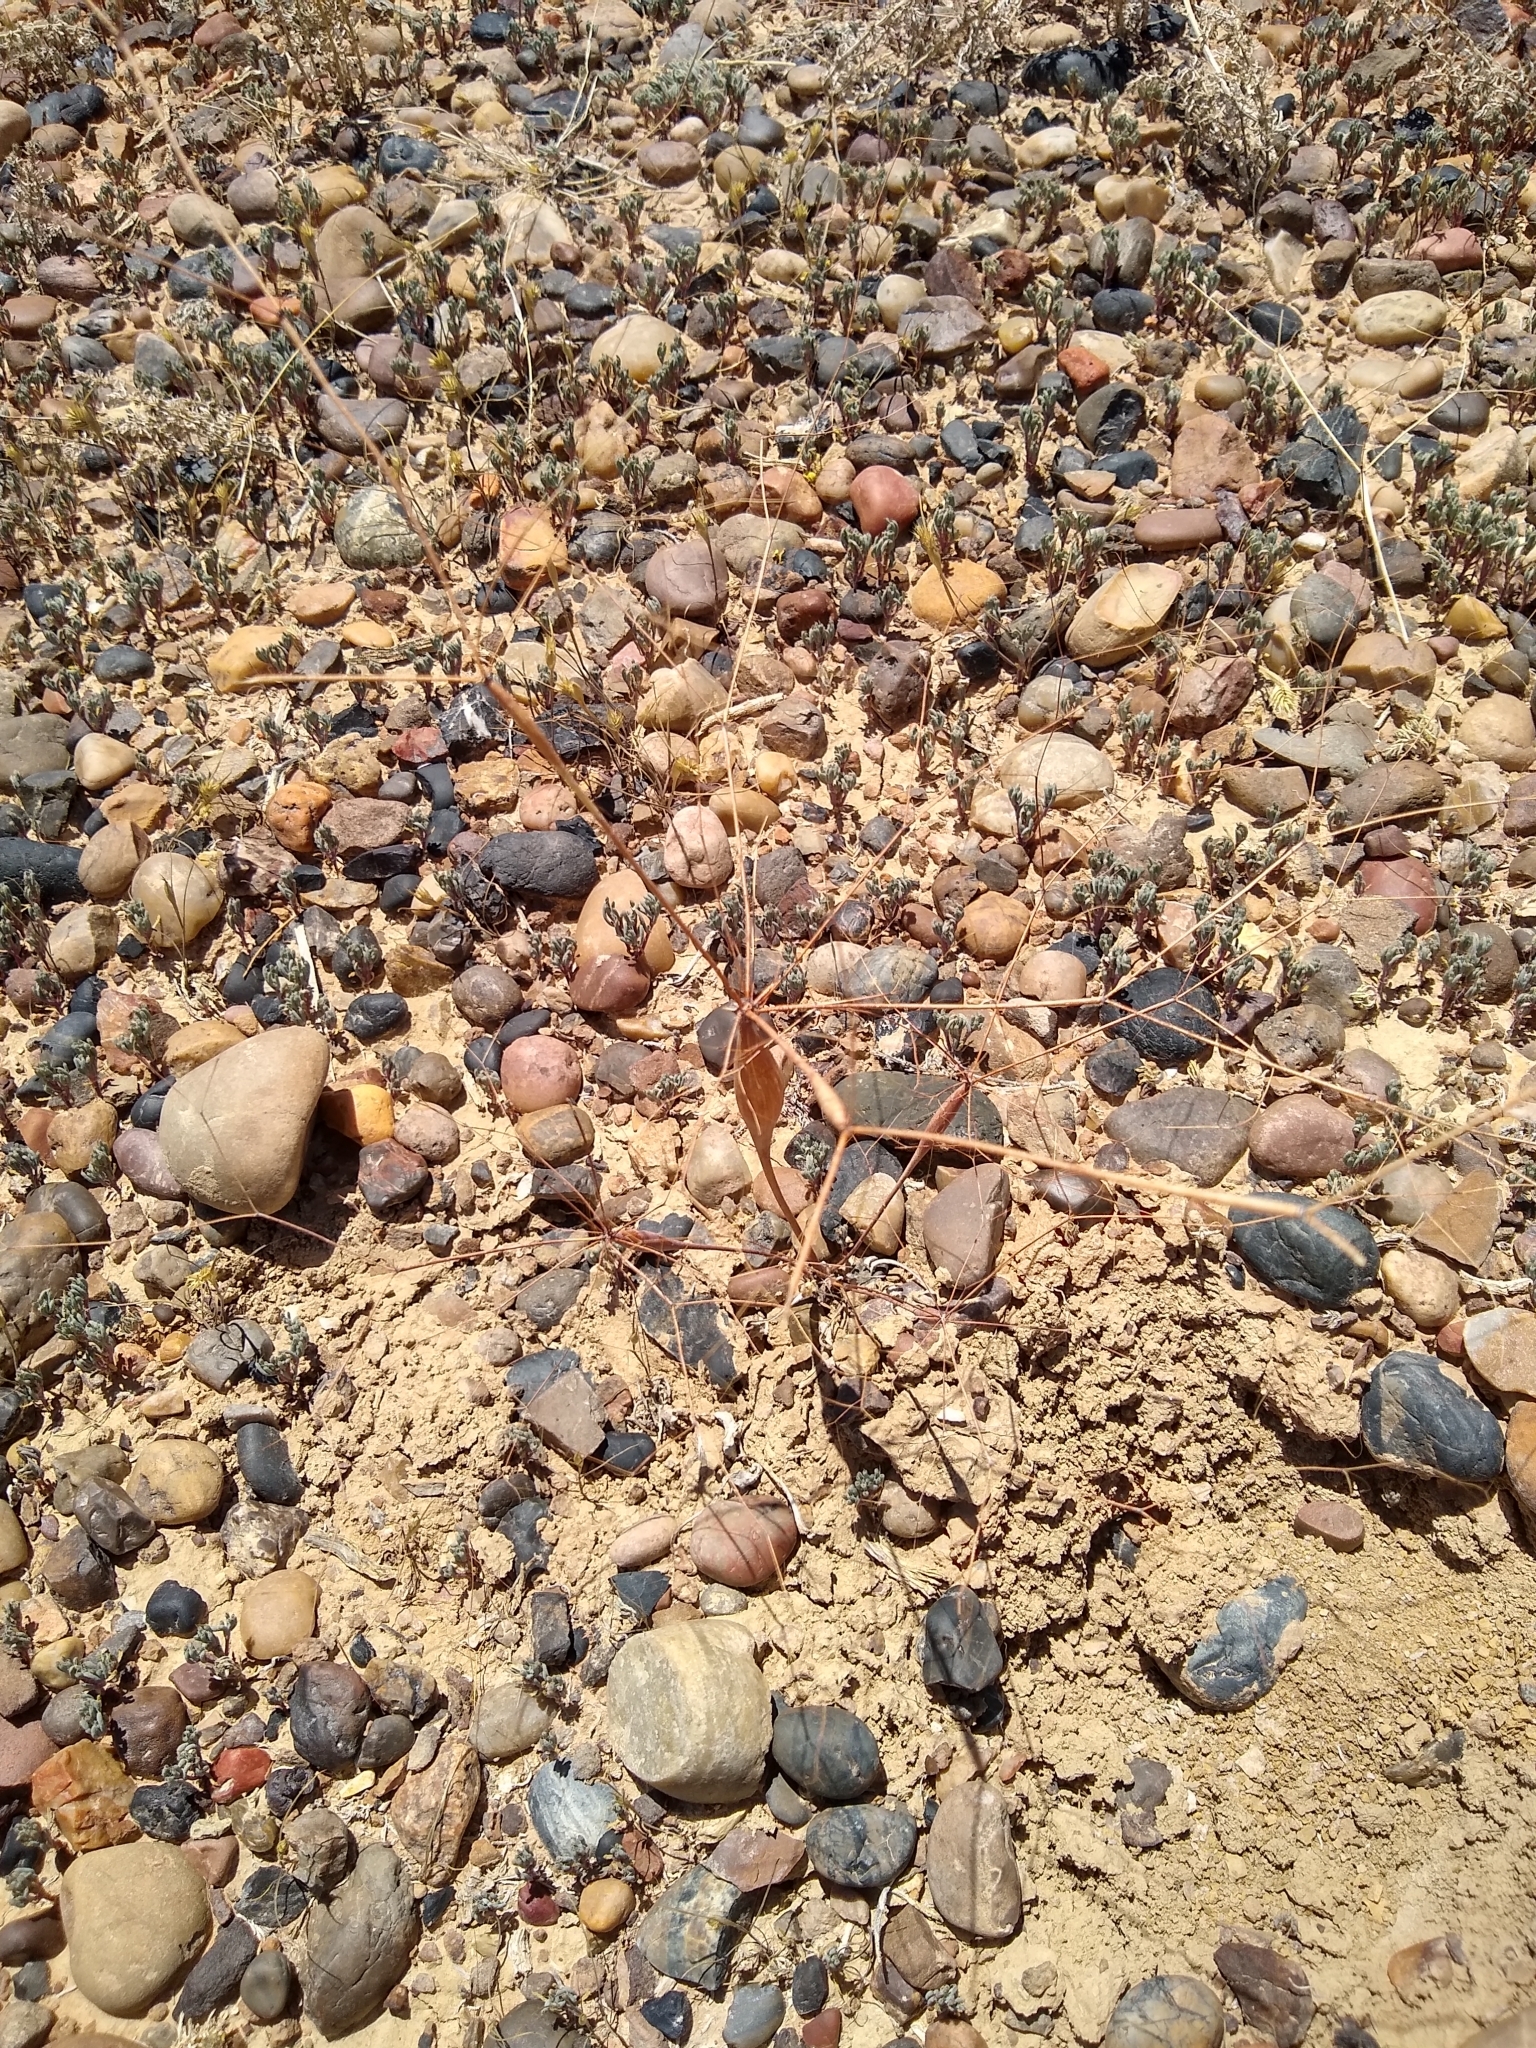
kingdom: Plantae
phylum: Tracheophyta
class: Magnoliopsida
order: Caryophyllales
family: Polygonaceae
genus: Eriogonum
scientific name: Eriogonum fusiforme
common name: Grand valley desert trumpet
